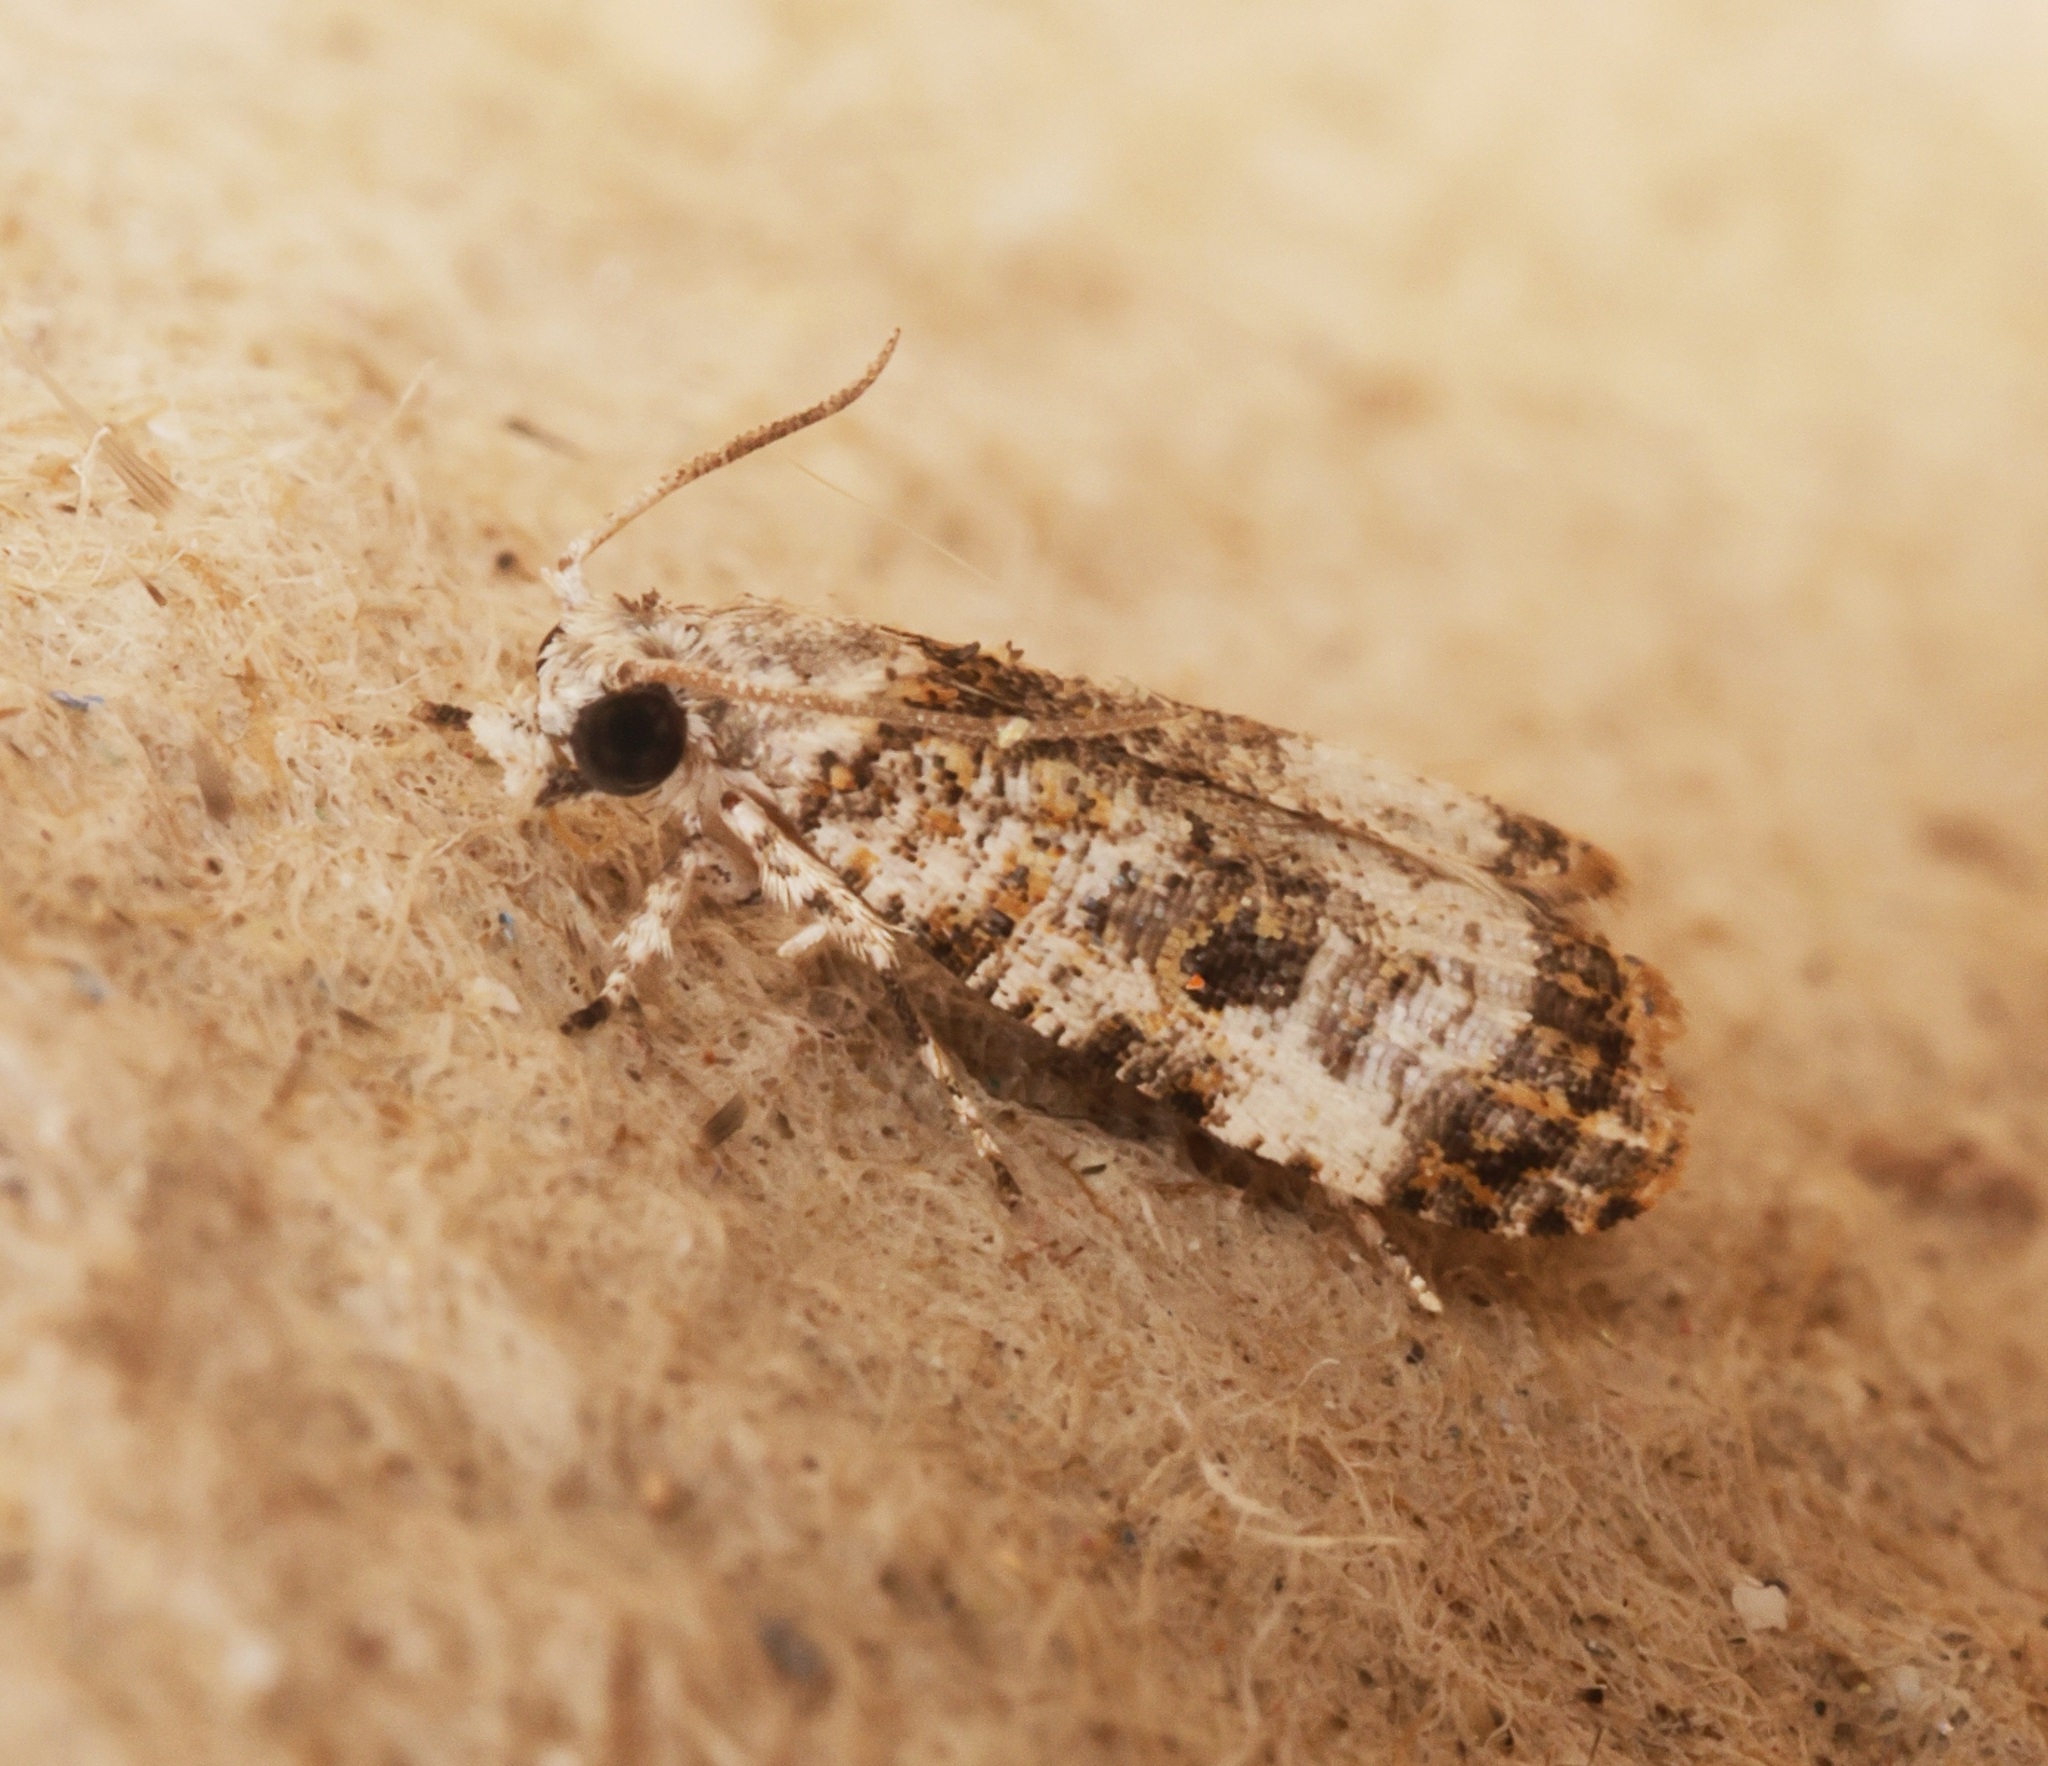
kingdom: Animalia
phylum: Arthropoda
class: Insecta
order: Lepidoptera
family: Tortricidae
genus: Phricanthes
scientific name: Phricanthes
